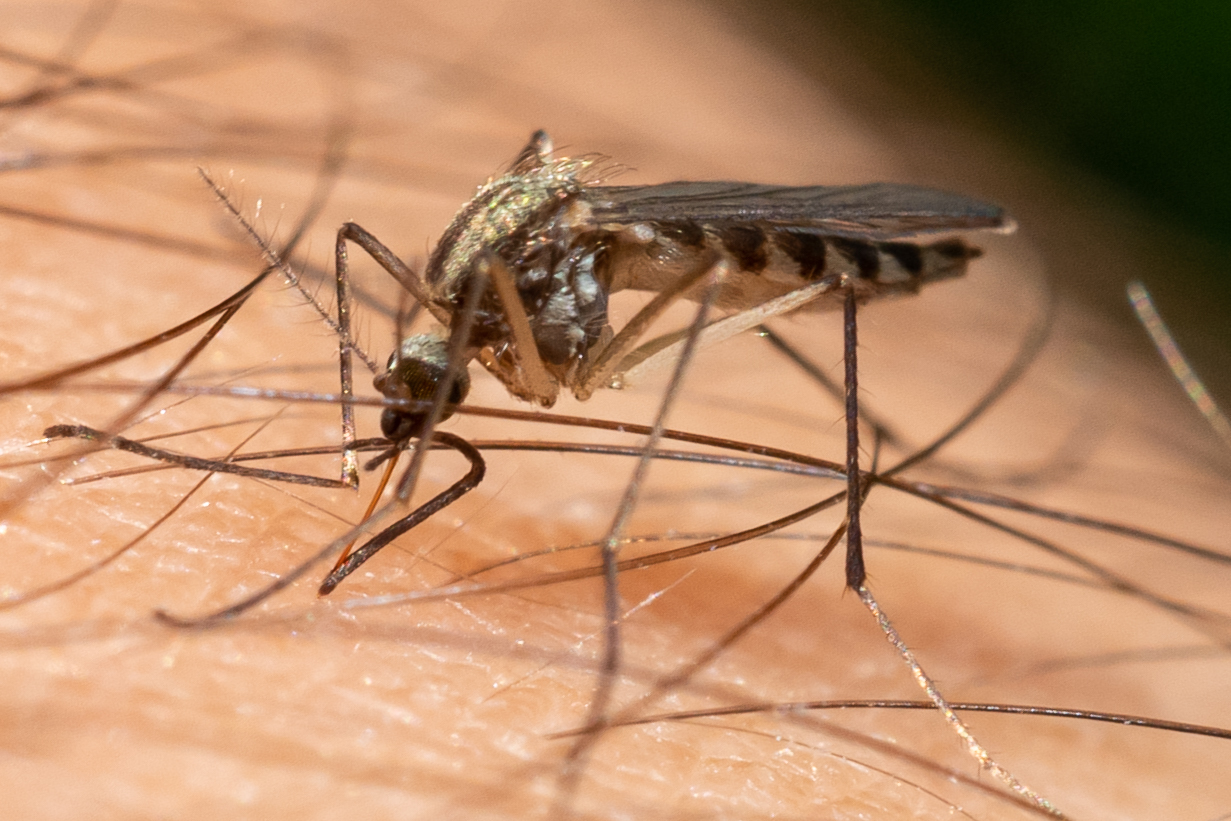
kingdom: Animalia
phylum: Arthropoda
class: Insecta
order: Diptera
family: Culicidae
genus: Aedes
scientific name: Aedes trivittatus
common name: Plains floodwater mosquito
